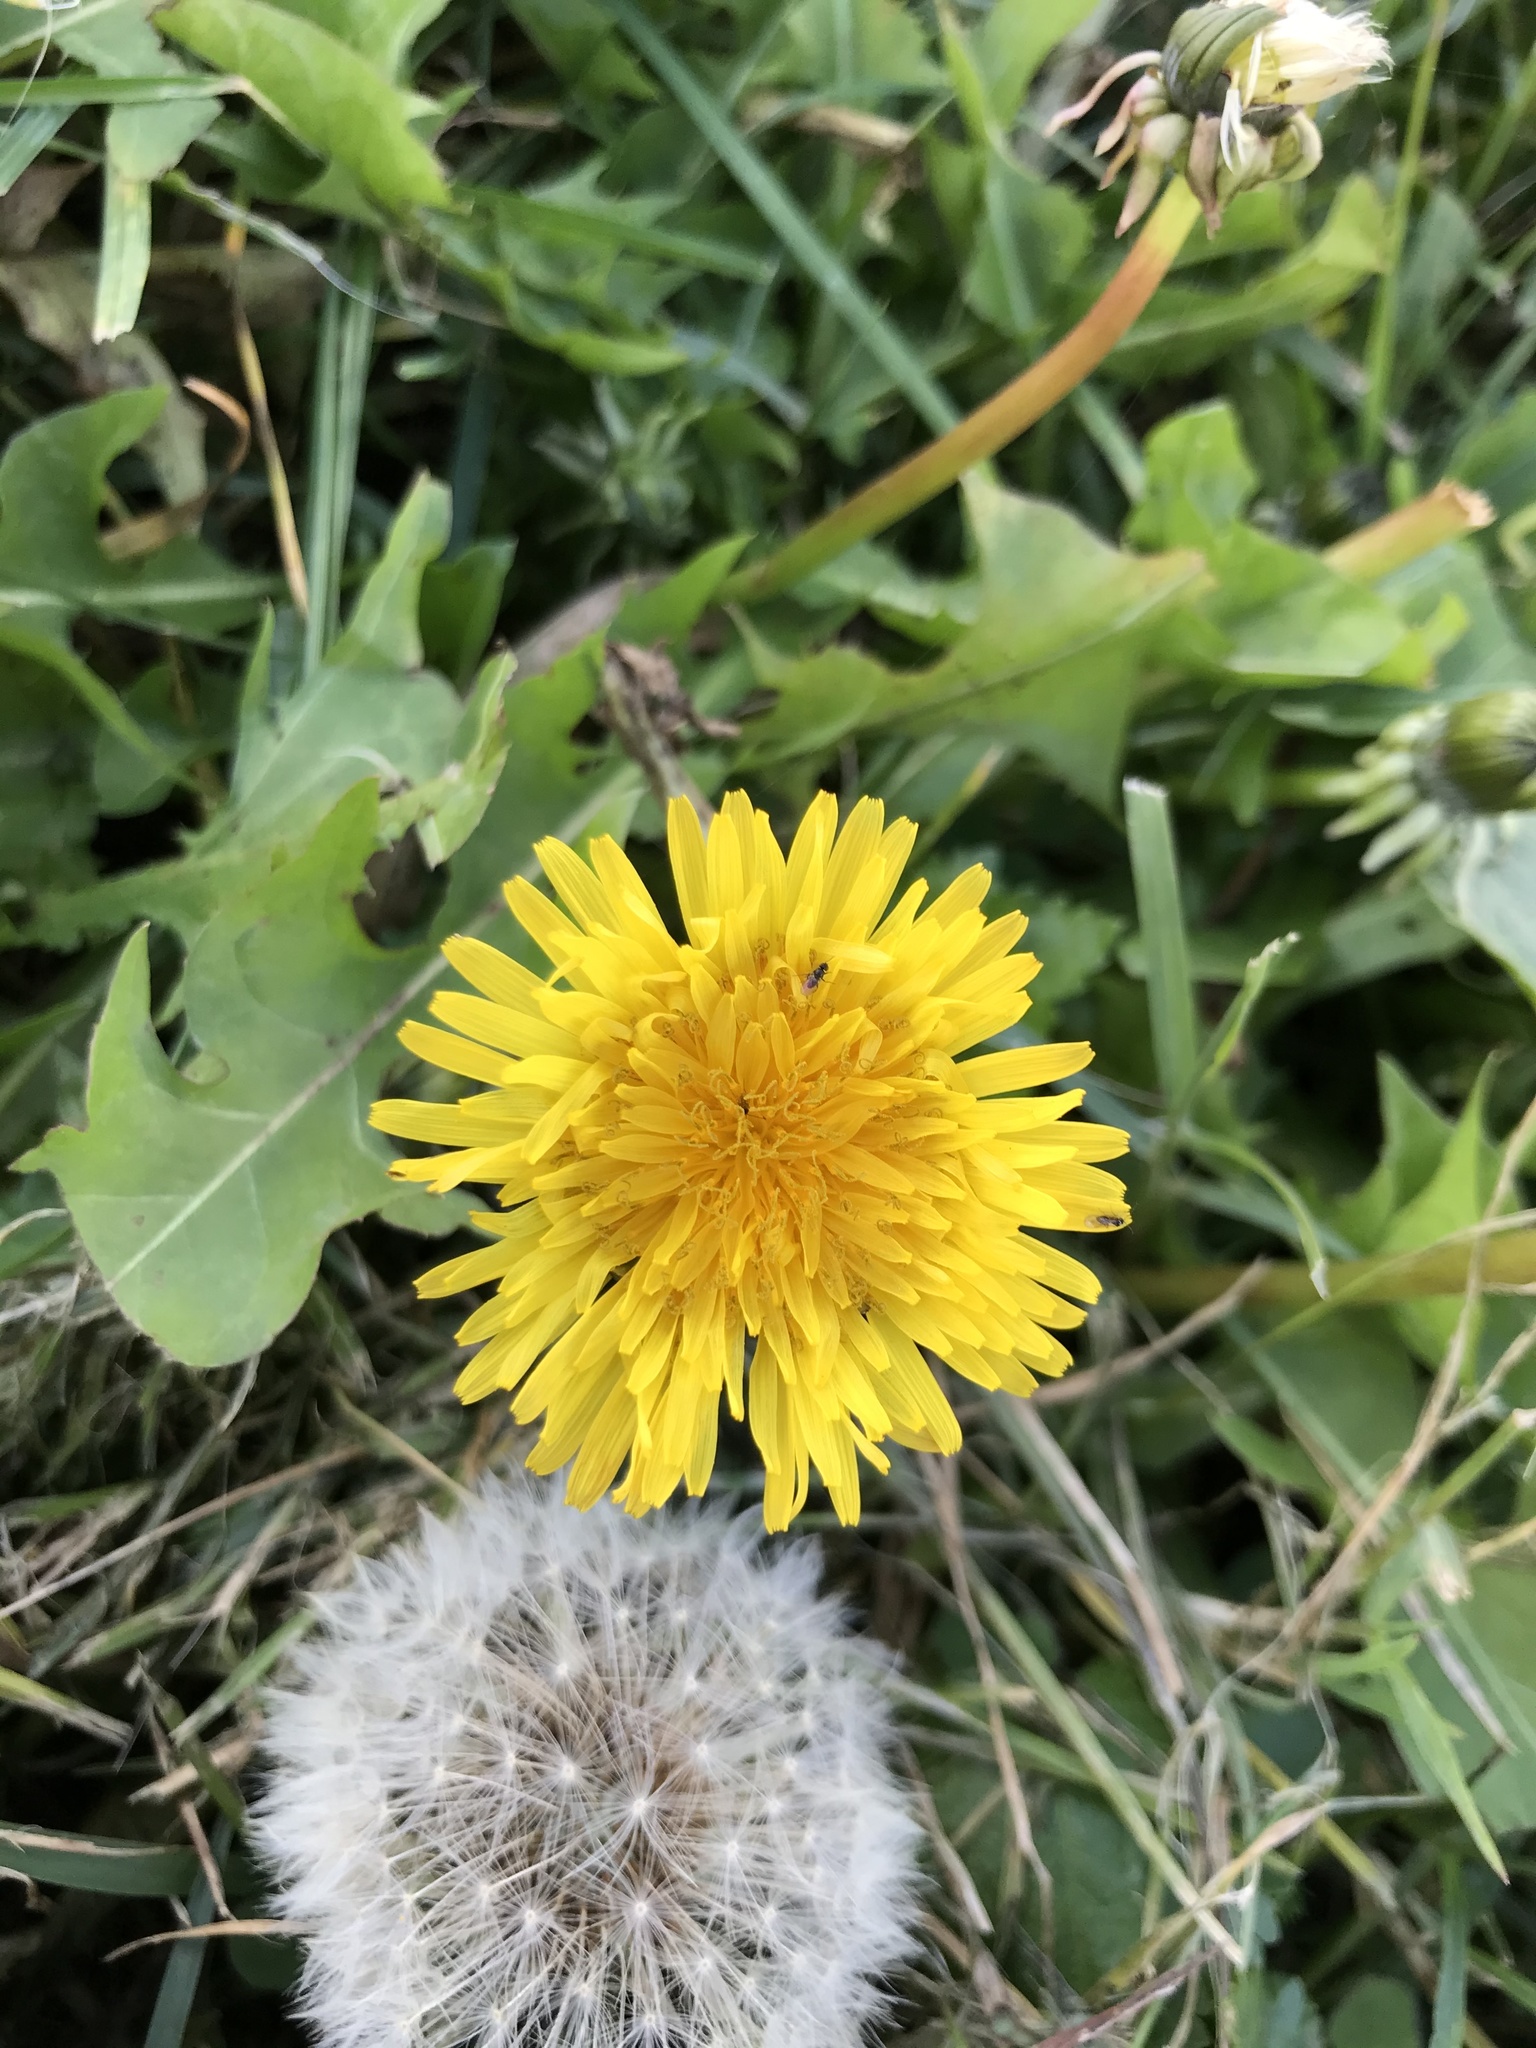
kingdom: Plantae
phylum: Tracheophyta
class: Magnoliopsida
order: Asterales
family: Asteraceae
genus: Taraxacum
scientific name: Taraxacum officinale
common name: Common dandelion
